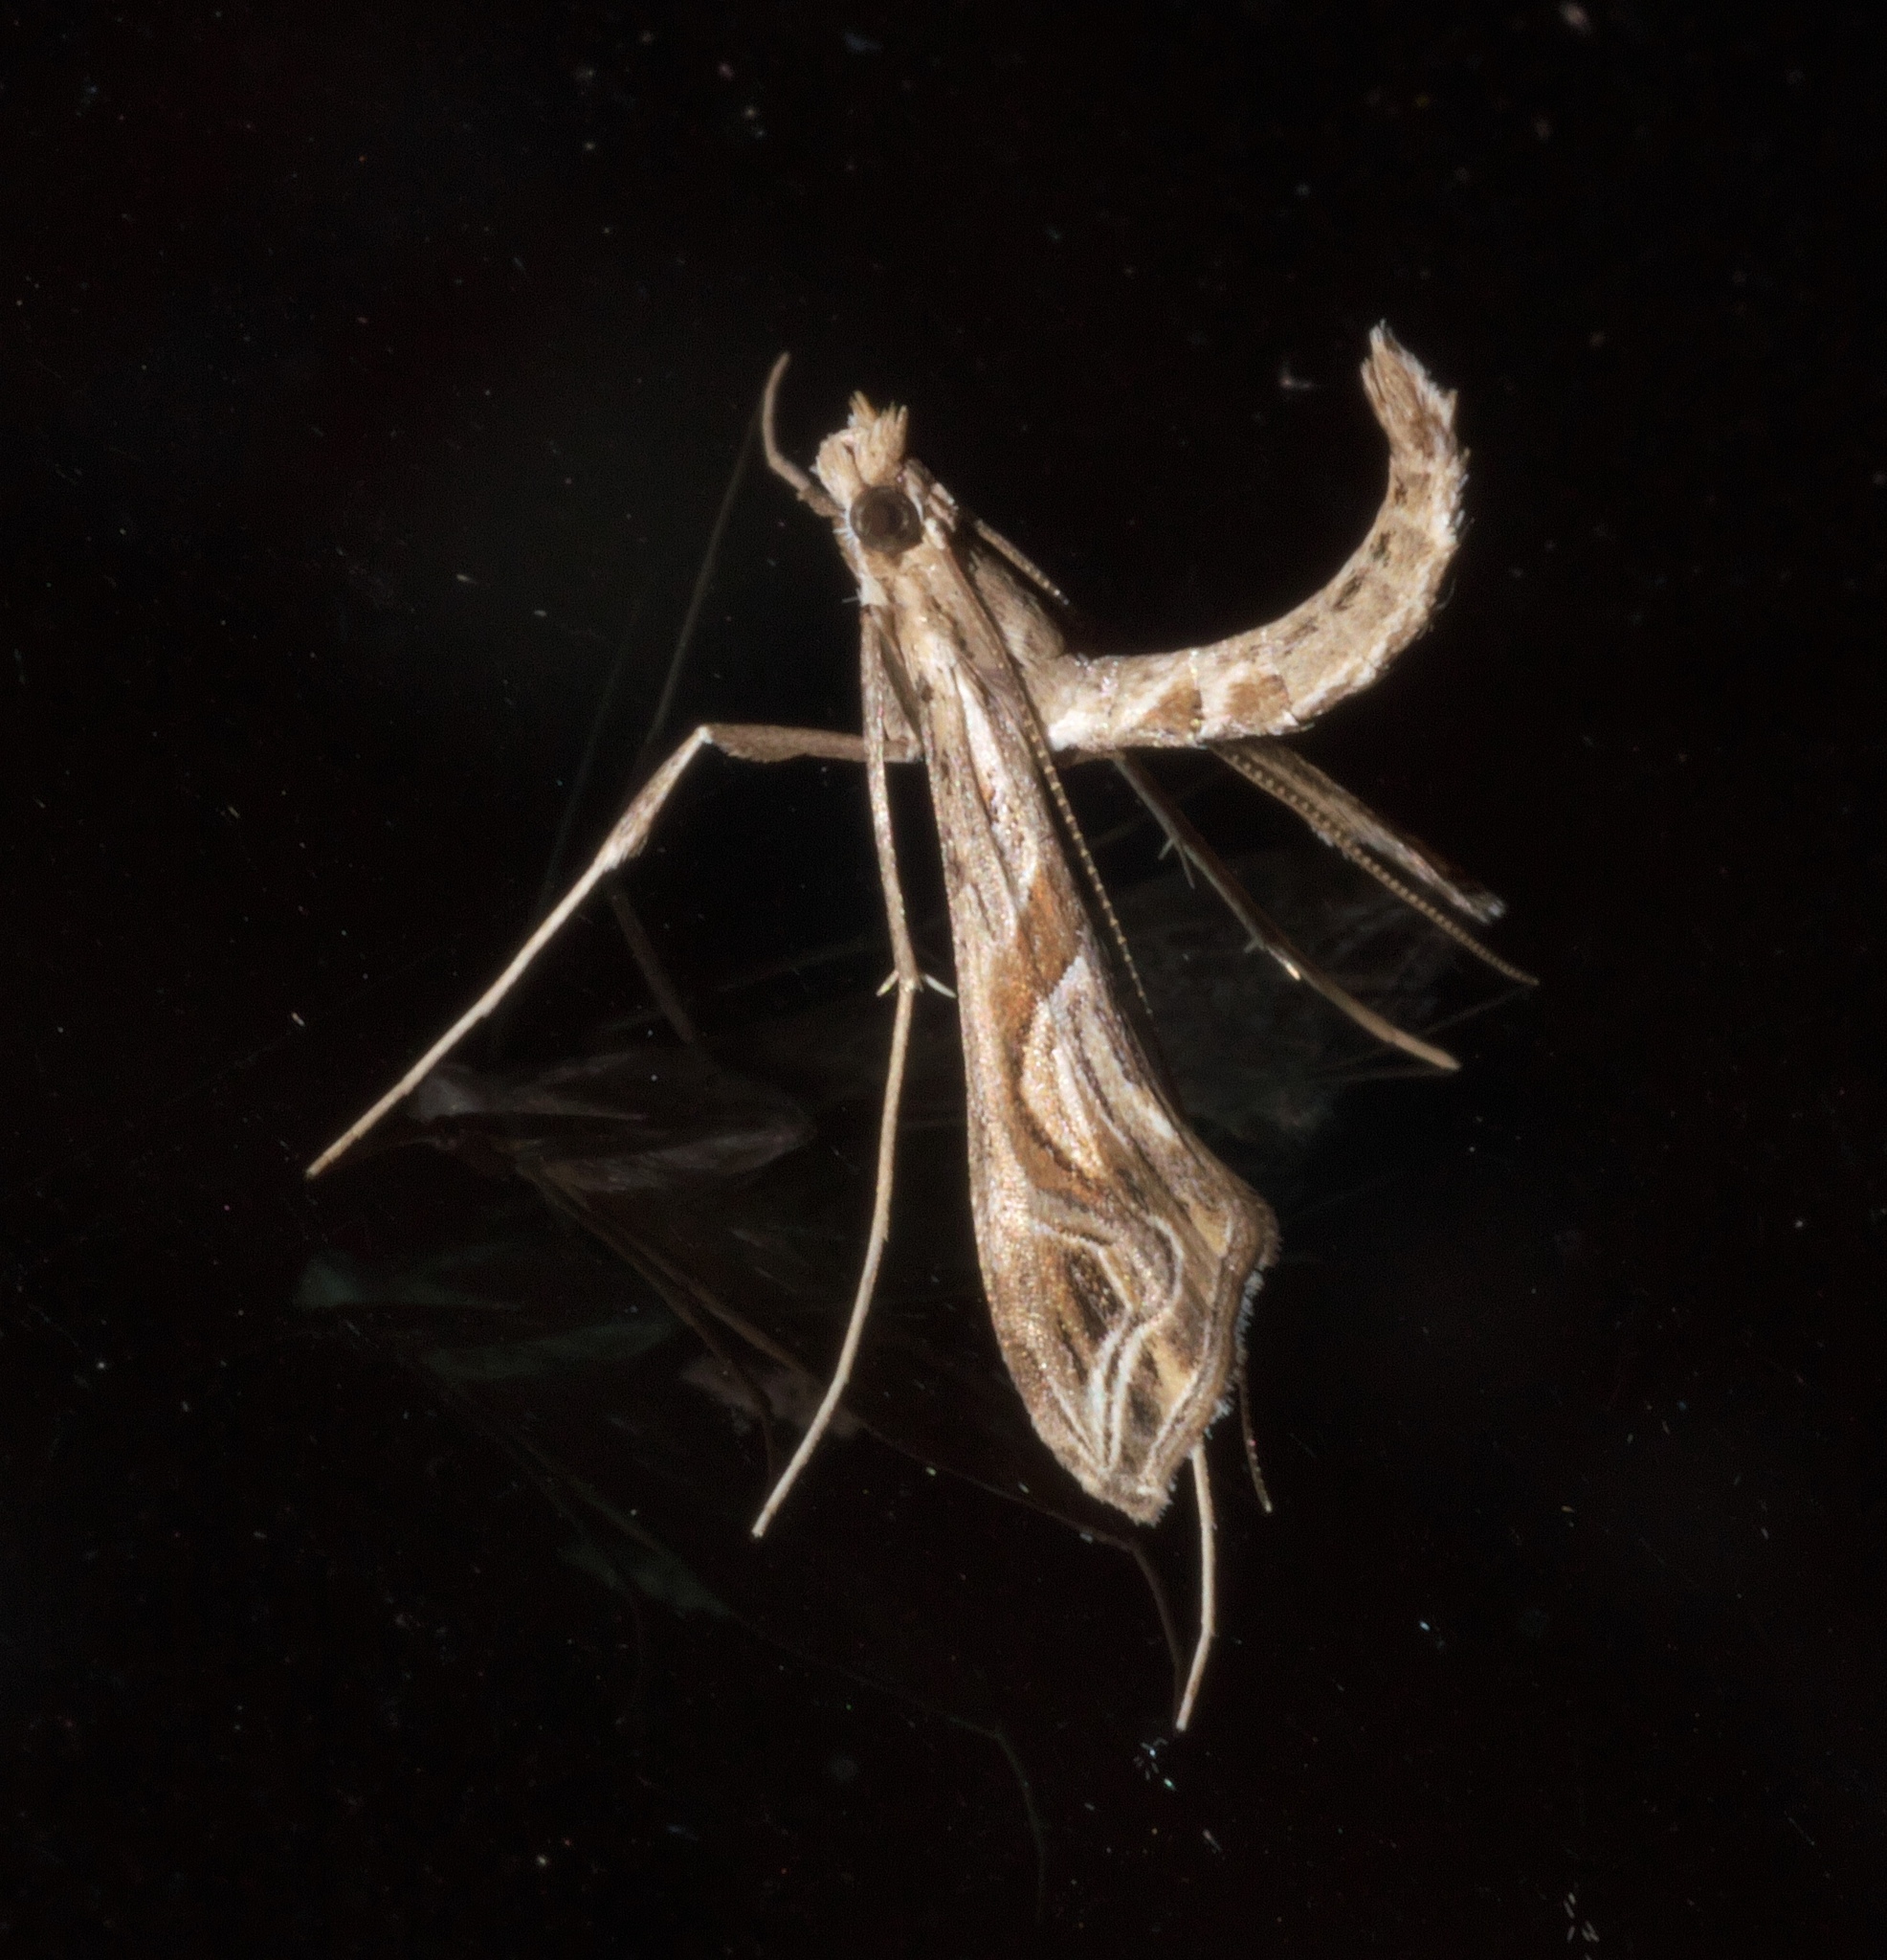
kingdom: Animalia
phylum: Arthropoda
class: Insecta
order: Lepidoptera
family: Crambidae
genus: Lineodes
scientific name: Lineodes integra
